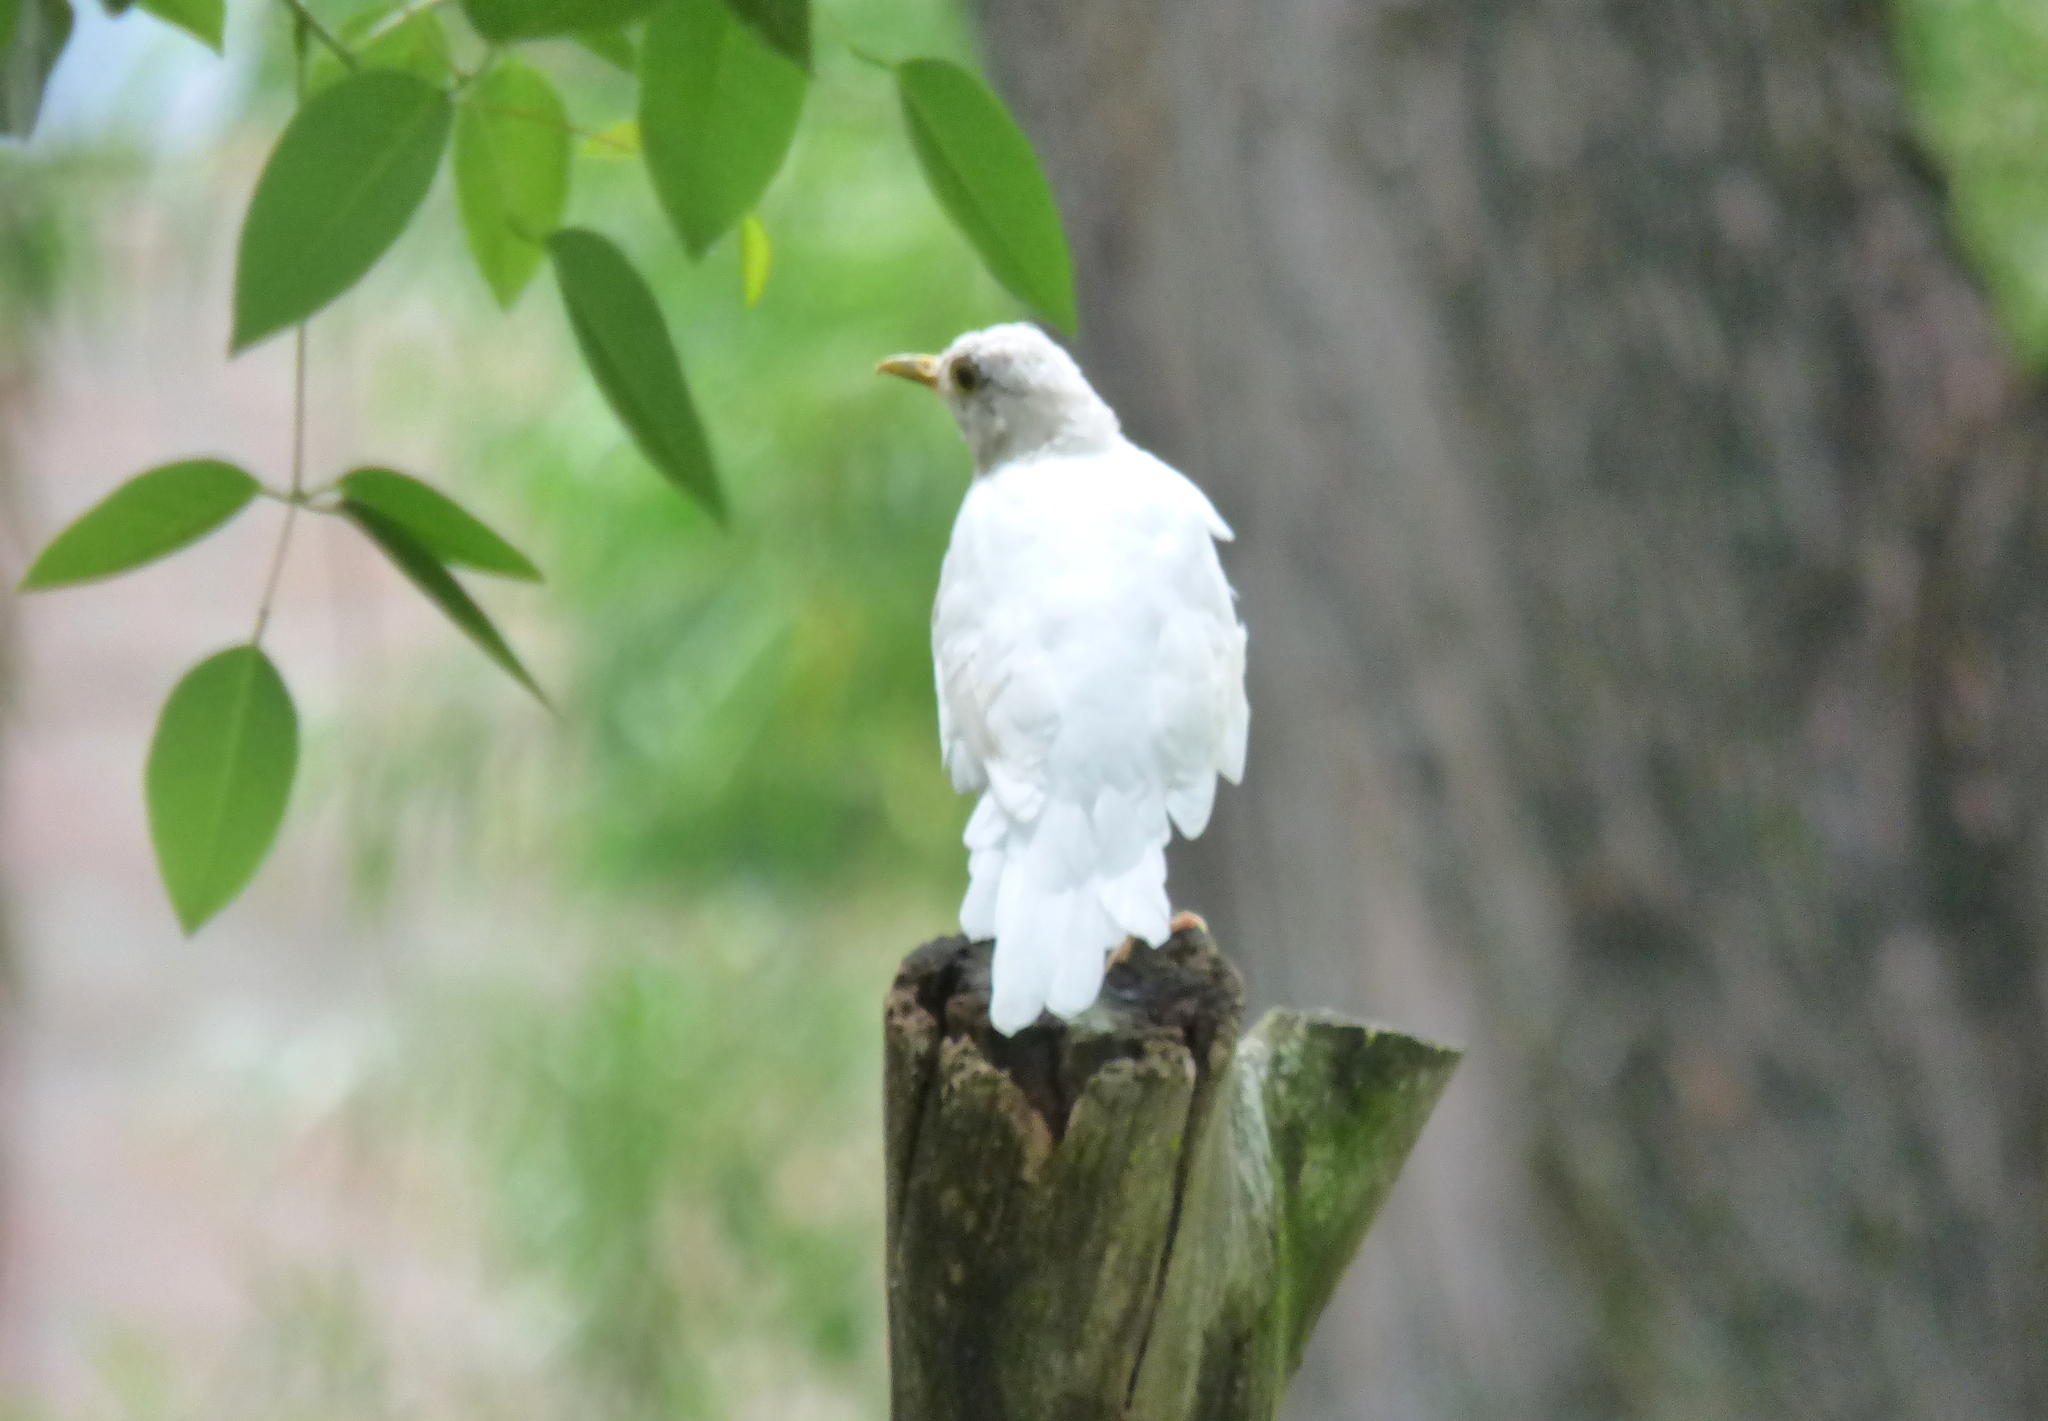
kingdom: Animalia
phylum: Chordata
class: Aves
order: Passeriformes
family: Turdidae
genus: Turdus
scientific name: Turdus rufiventris
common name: Rufous-bellied thrush
